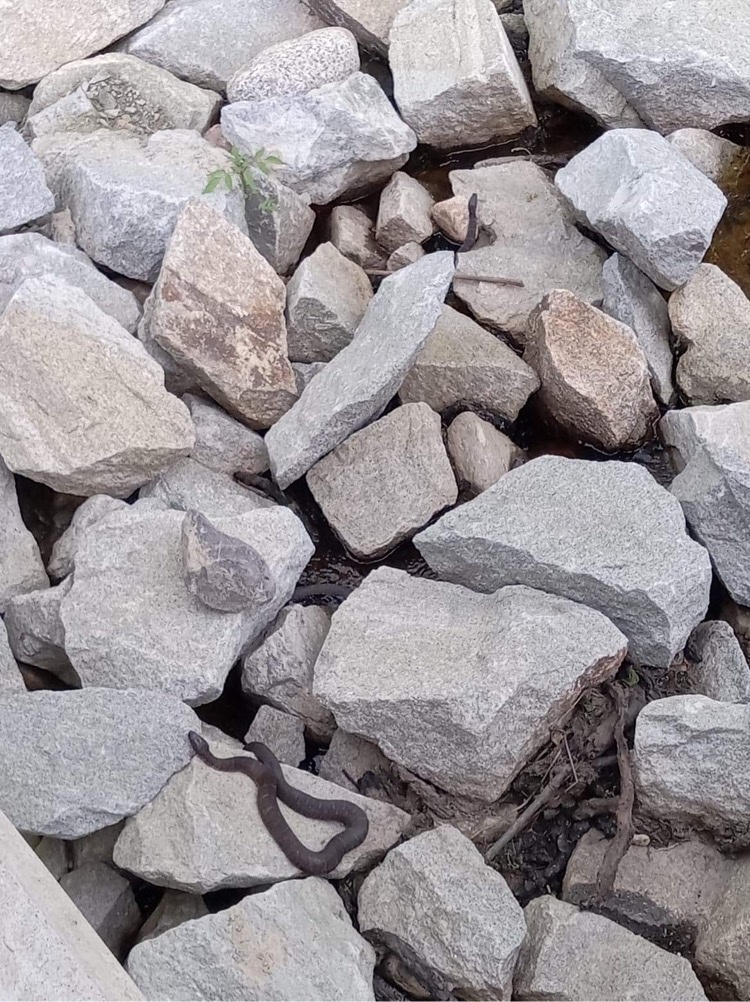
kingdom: Animalia
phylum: Chordata
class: Squamata
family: Colubridae
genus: Nerodia
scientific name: Nerodia sipedon
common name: Northern water snake
